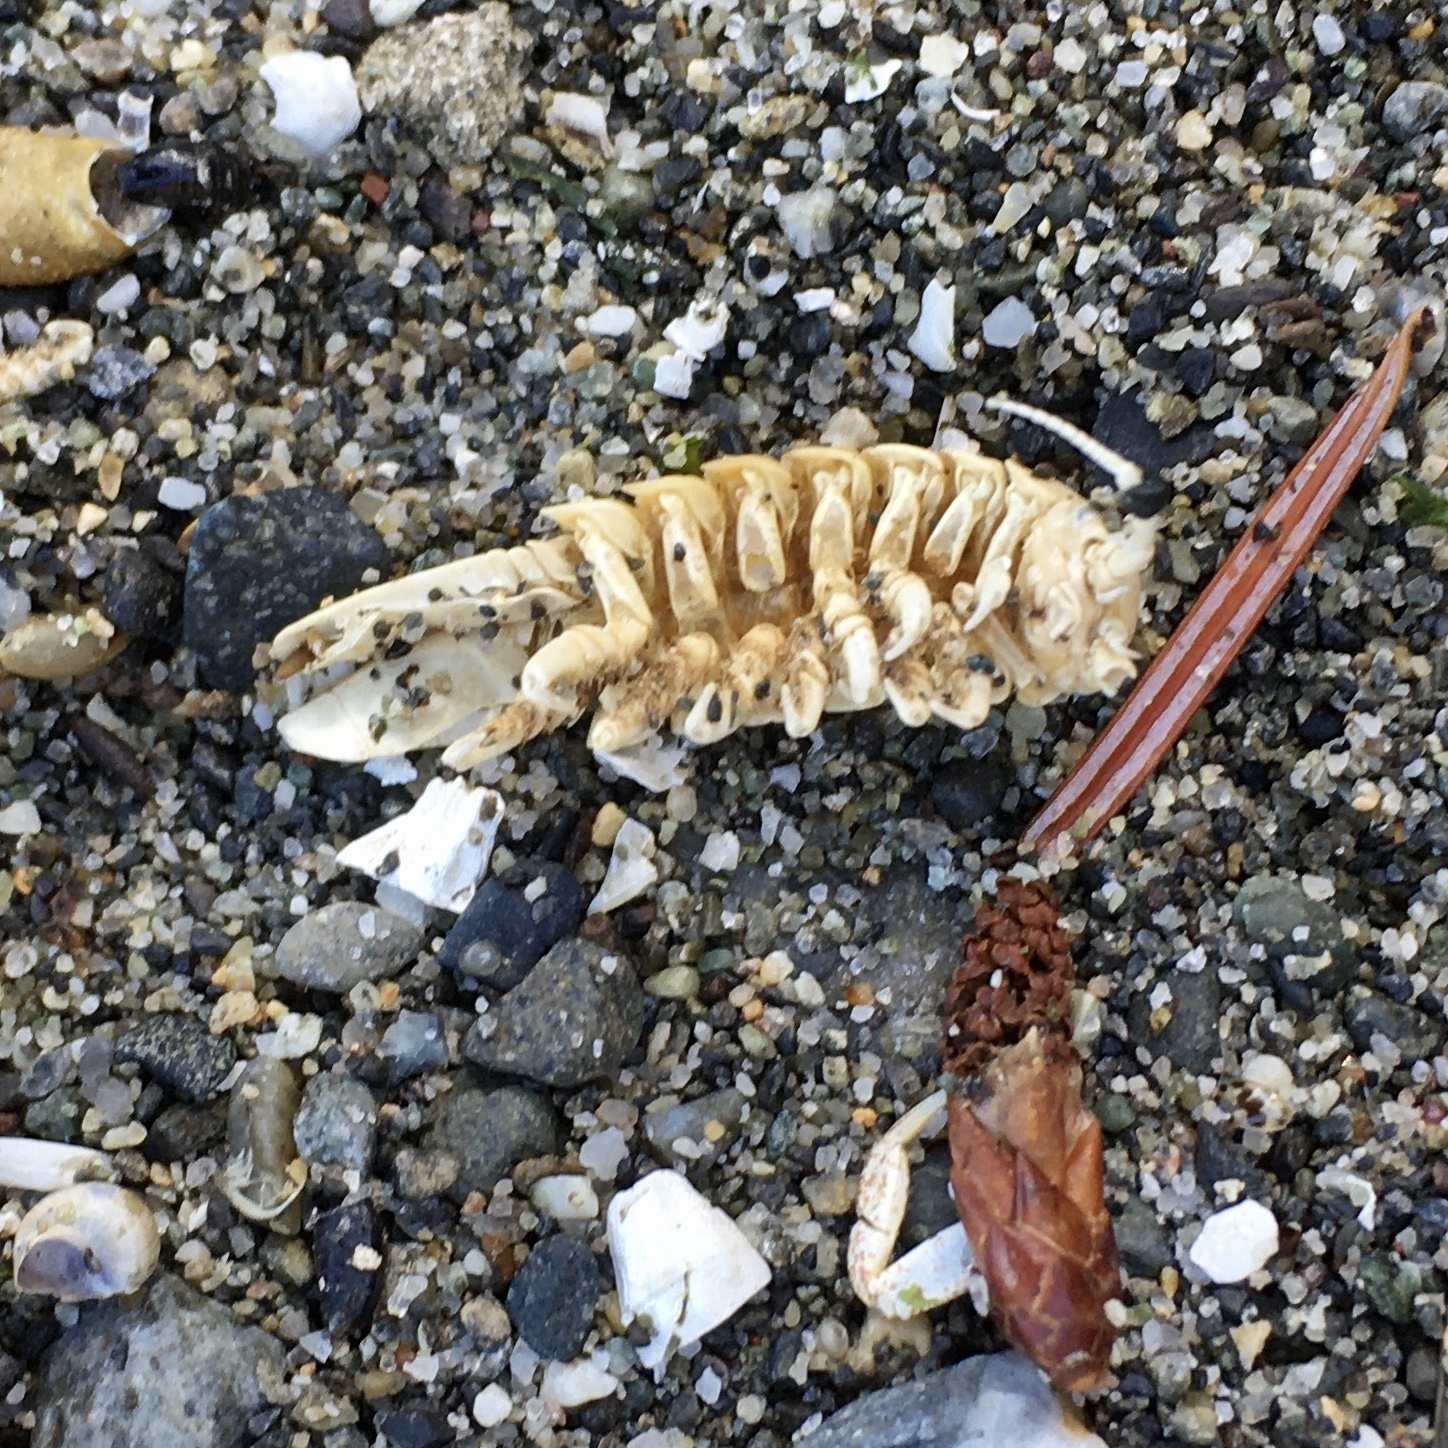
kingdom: Animalia
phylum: Arthropoda
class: Malacostraca
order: Isopoda
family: Idoteidae
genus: Pentidotea
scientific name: Pentidotea wosnesenskii
